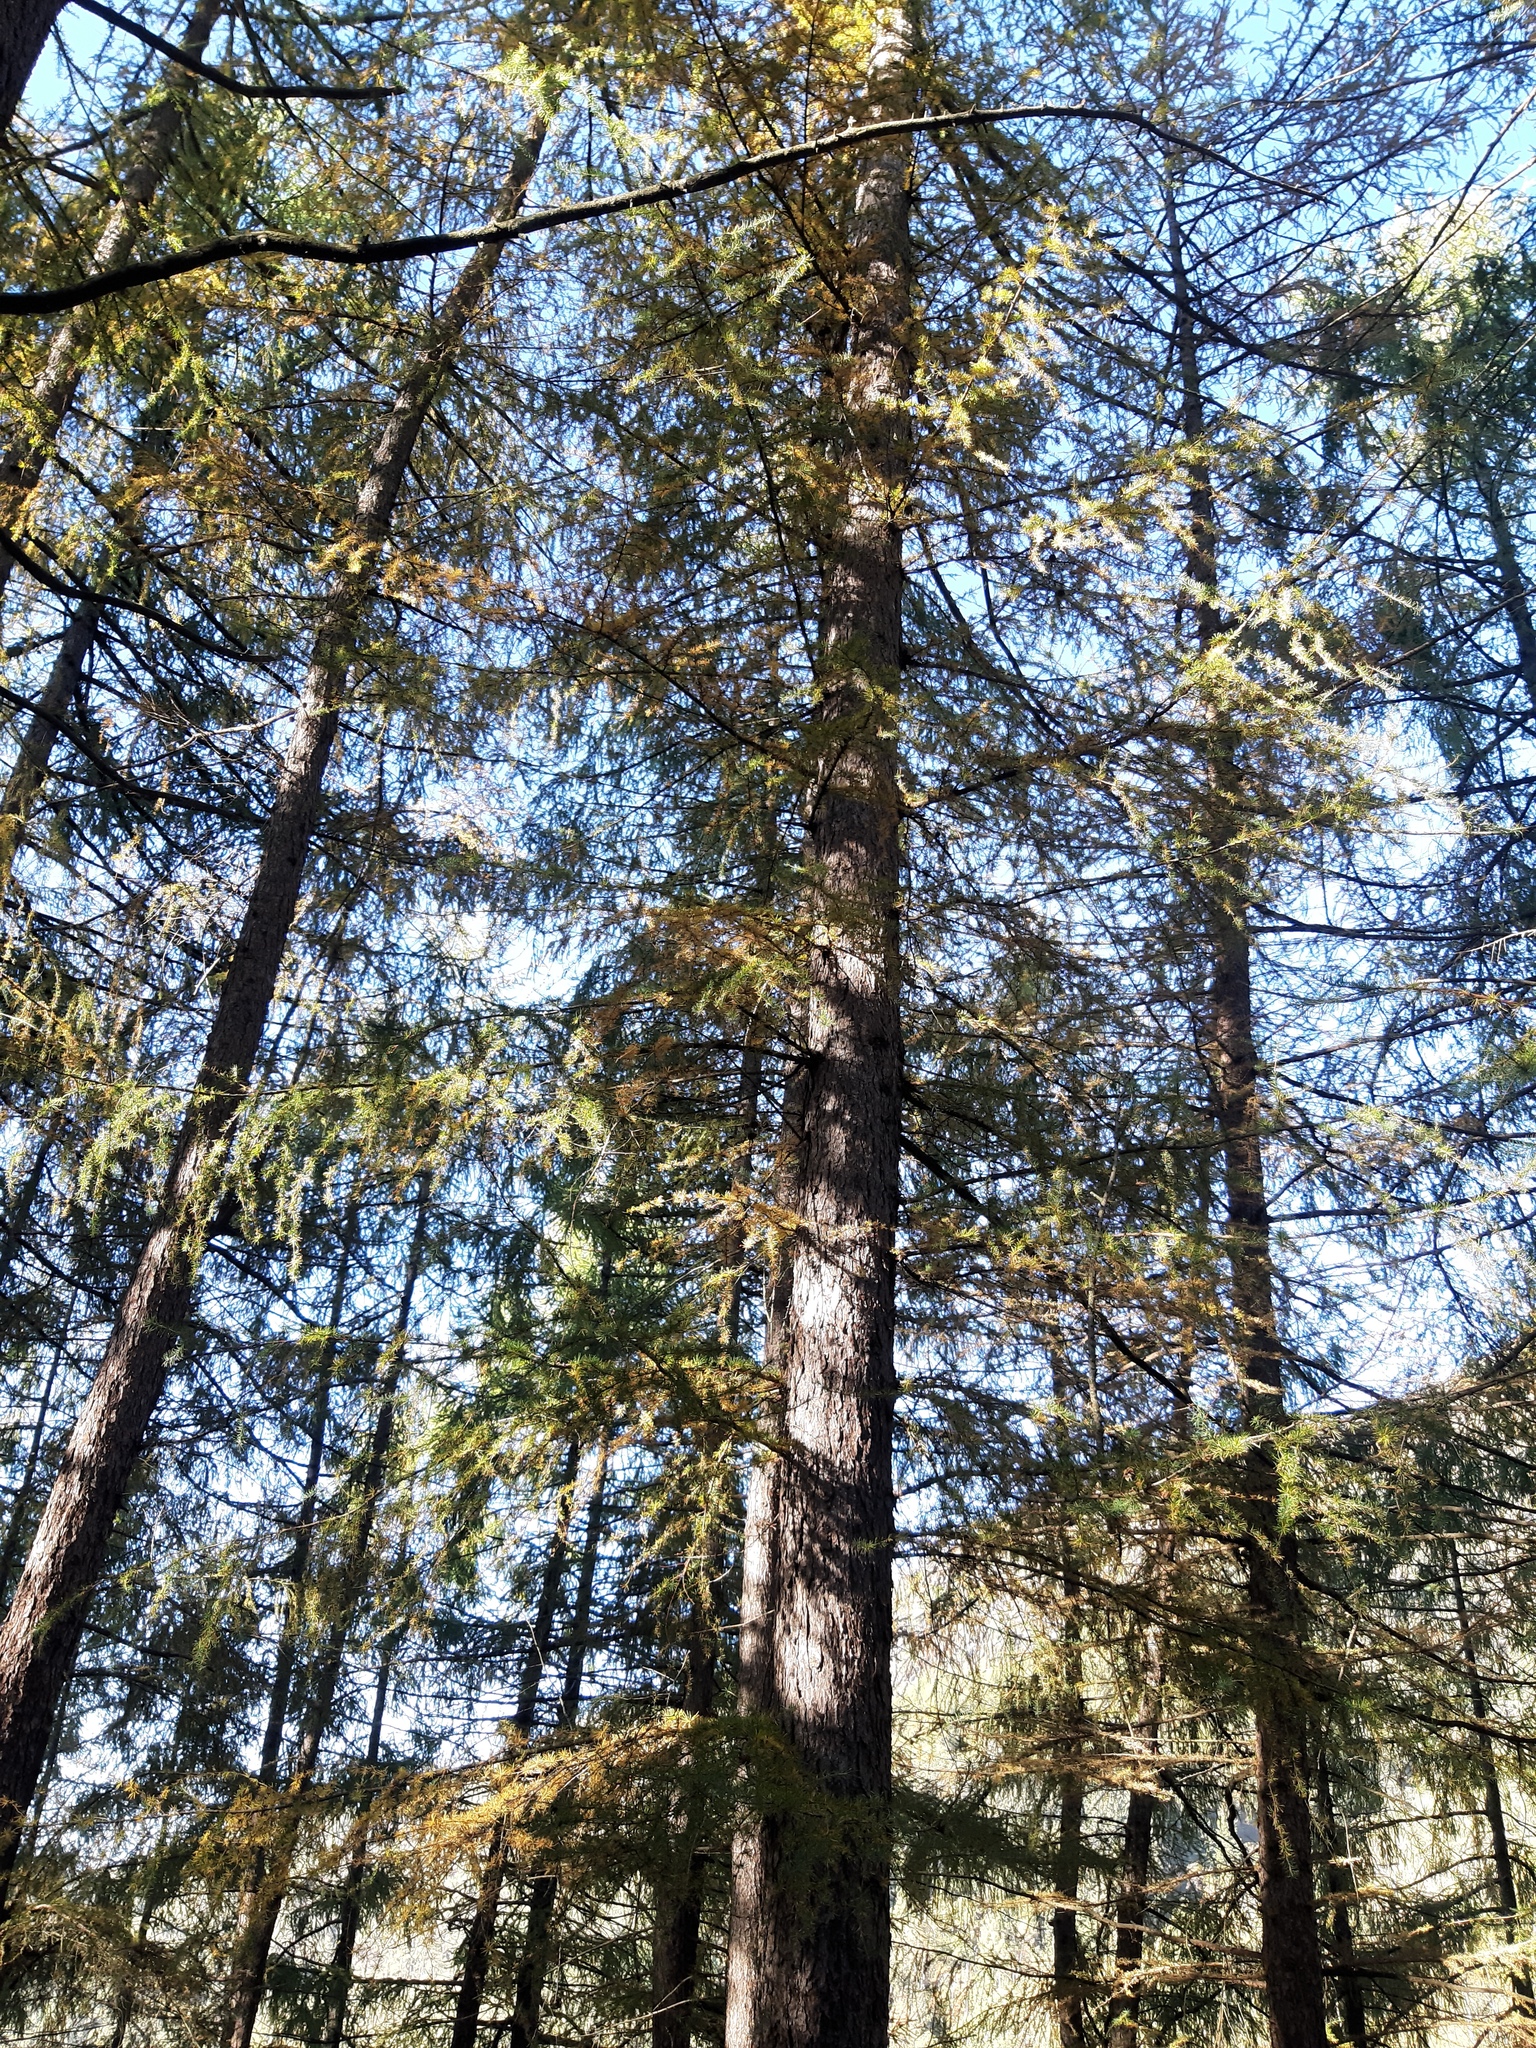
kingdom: Plantae
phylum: Tracheophyta
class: Pinopsida
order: Pinales
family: Pinaceae
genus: Larix
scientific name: Larix decidua
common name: European larch
